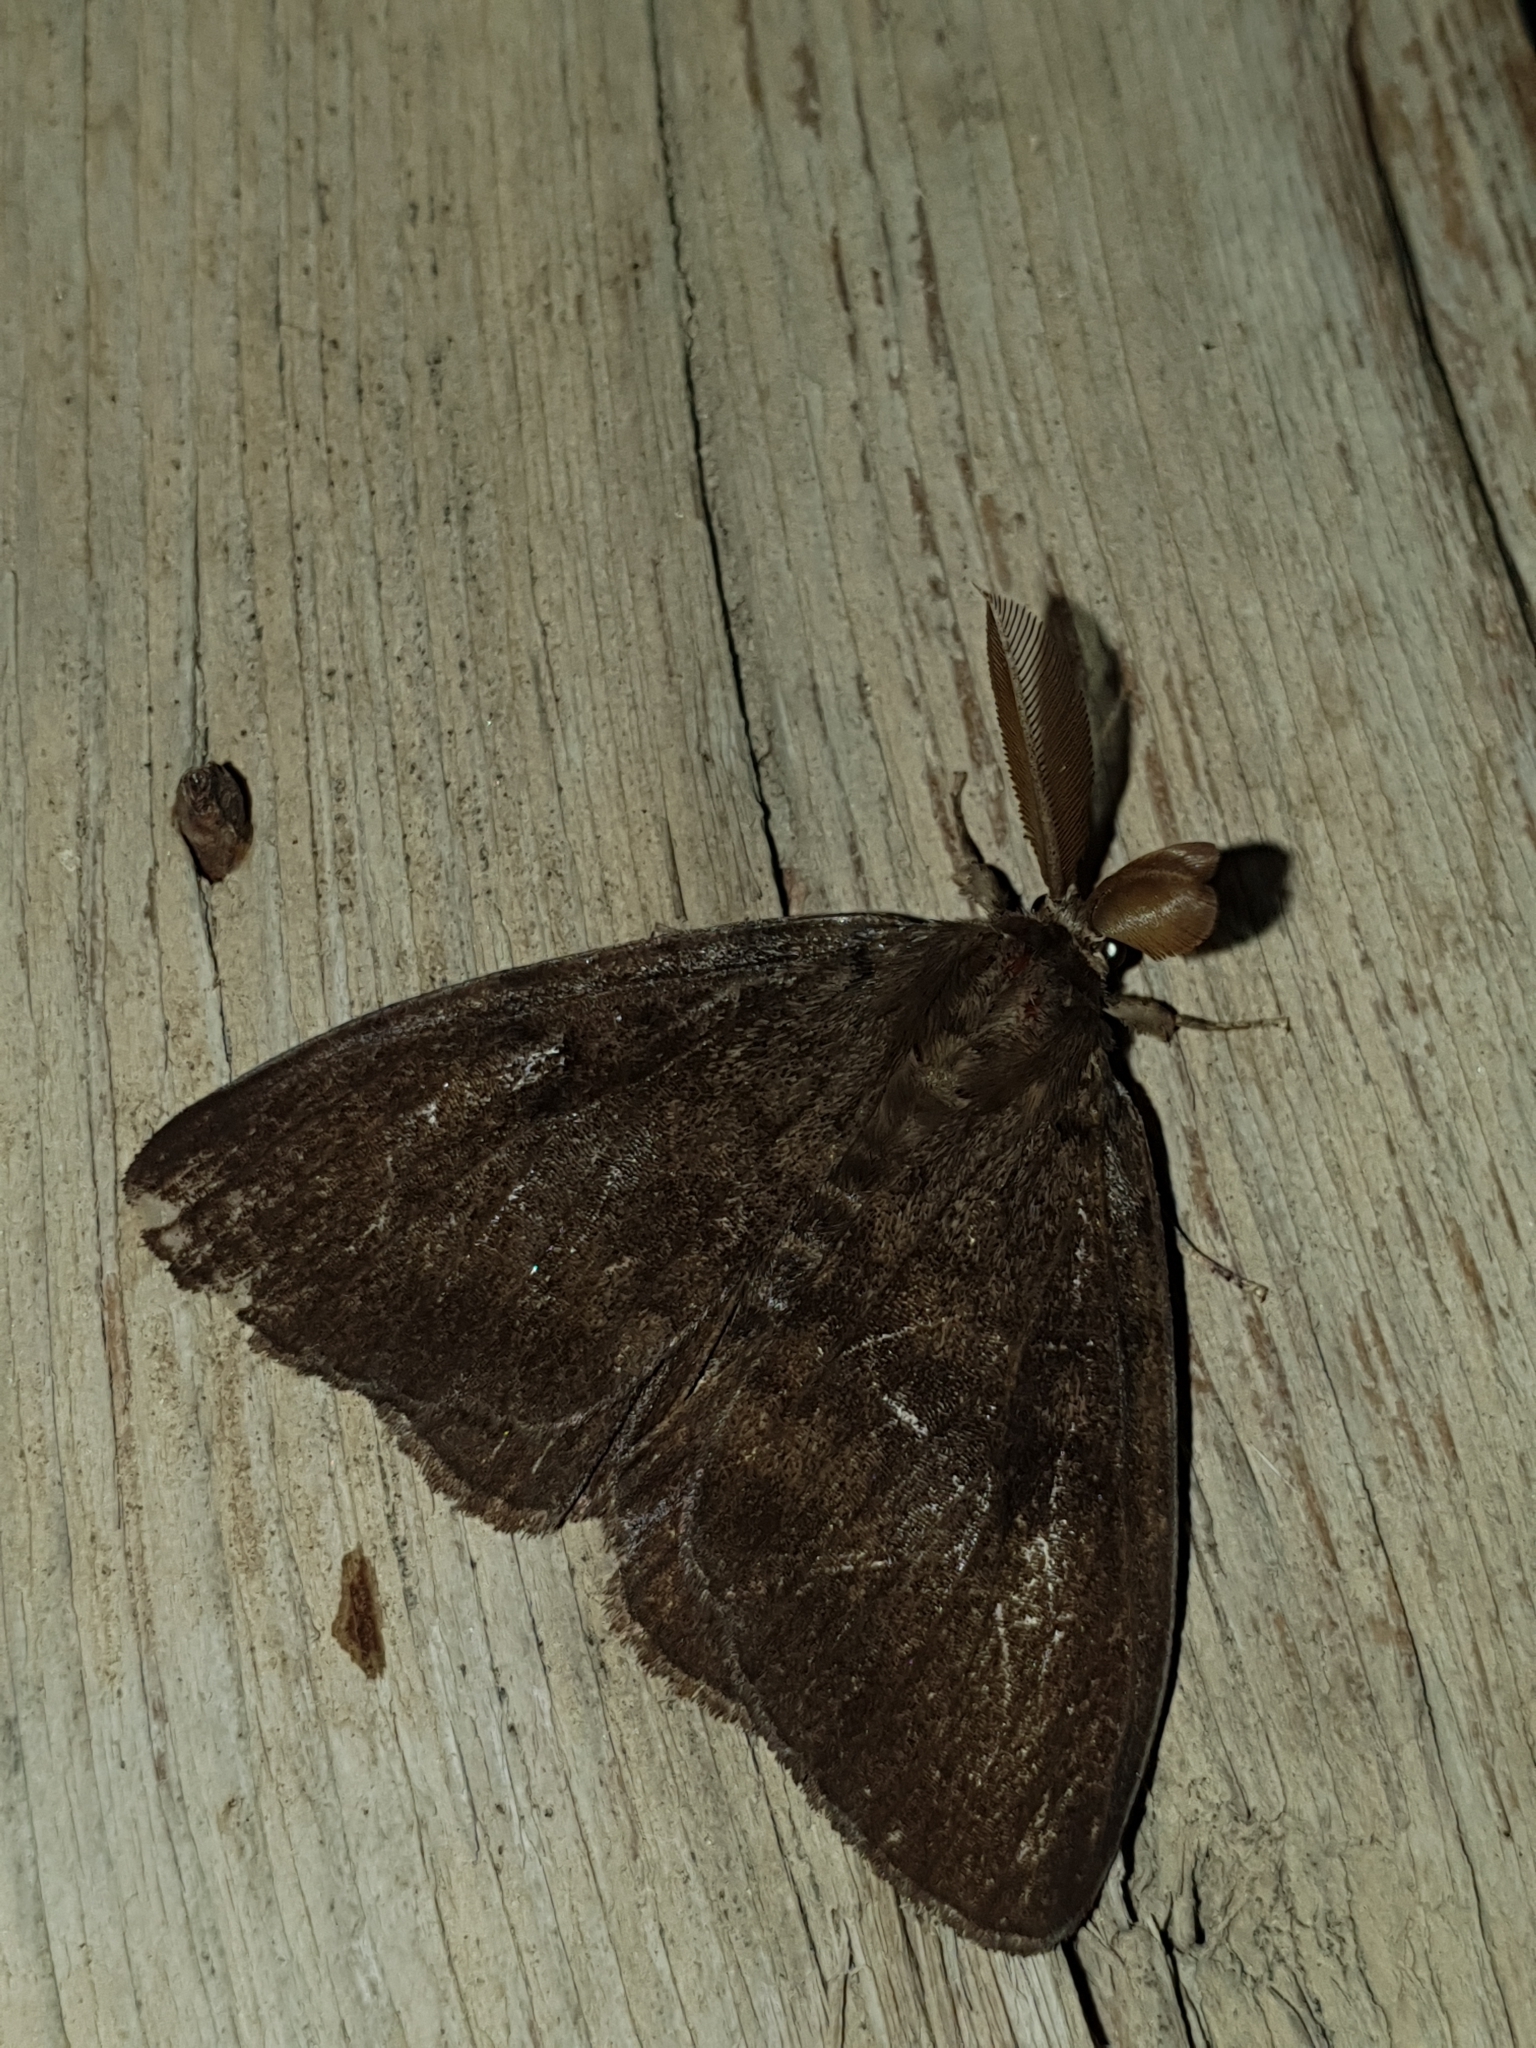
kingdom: Animalia
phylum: Arthropoda
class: Insecta
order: Lepidoptera
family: Erebidae
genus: Lymantria
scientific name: Lymantria monacha
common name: Black arches
